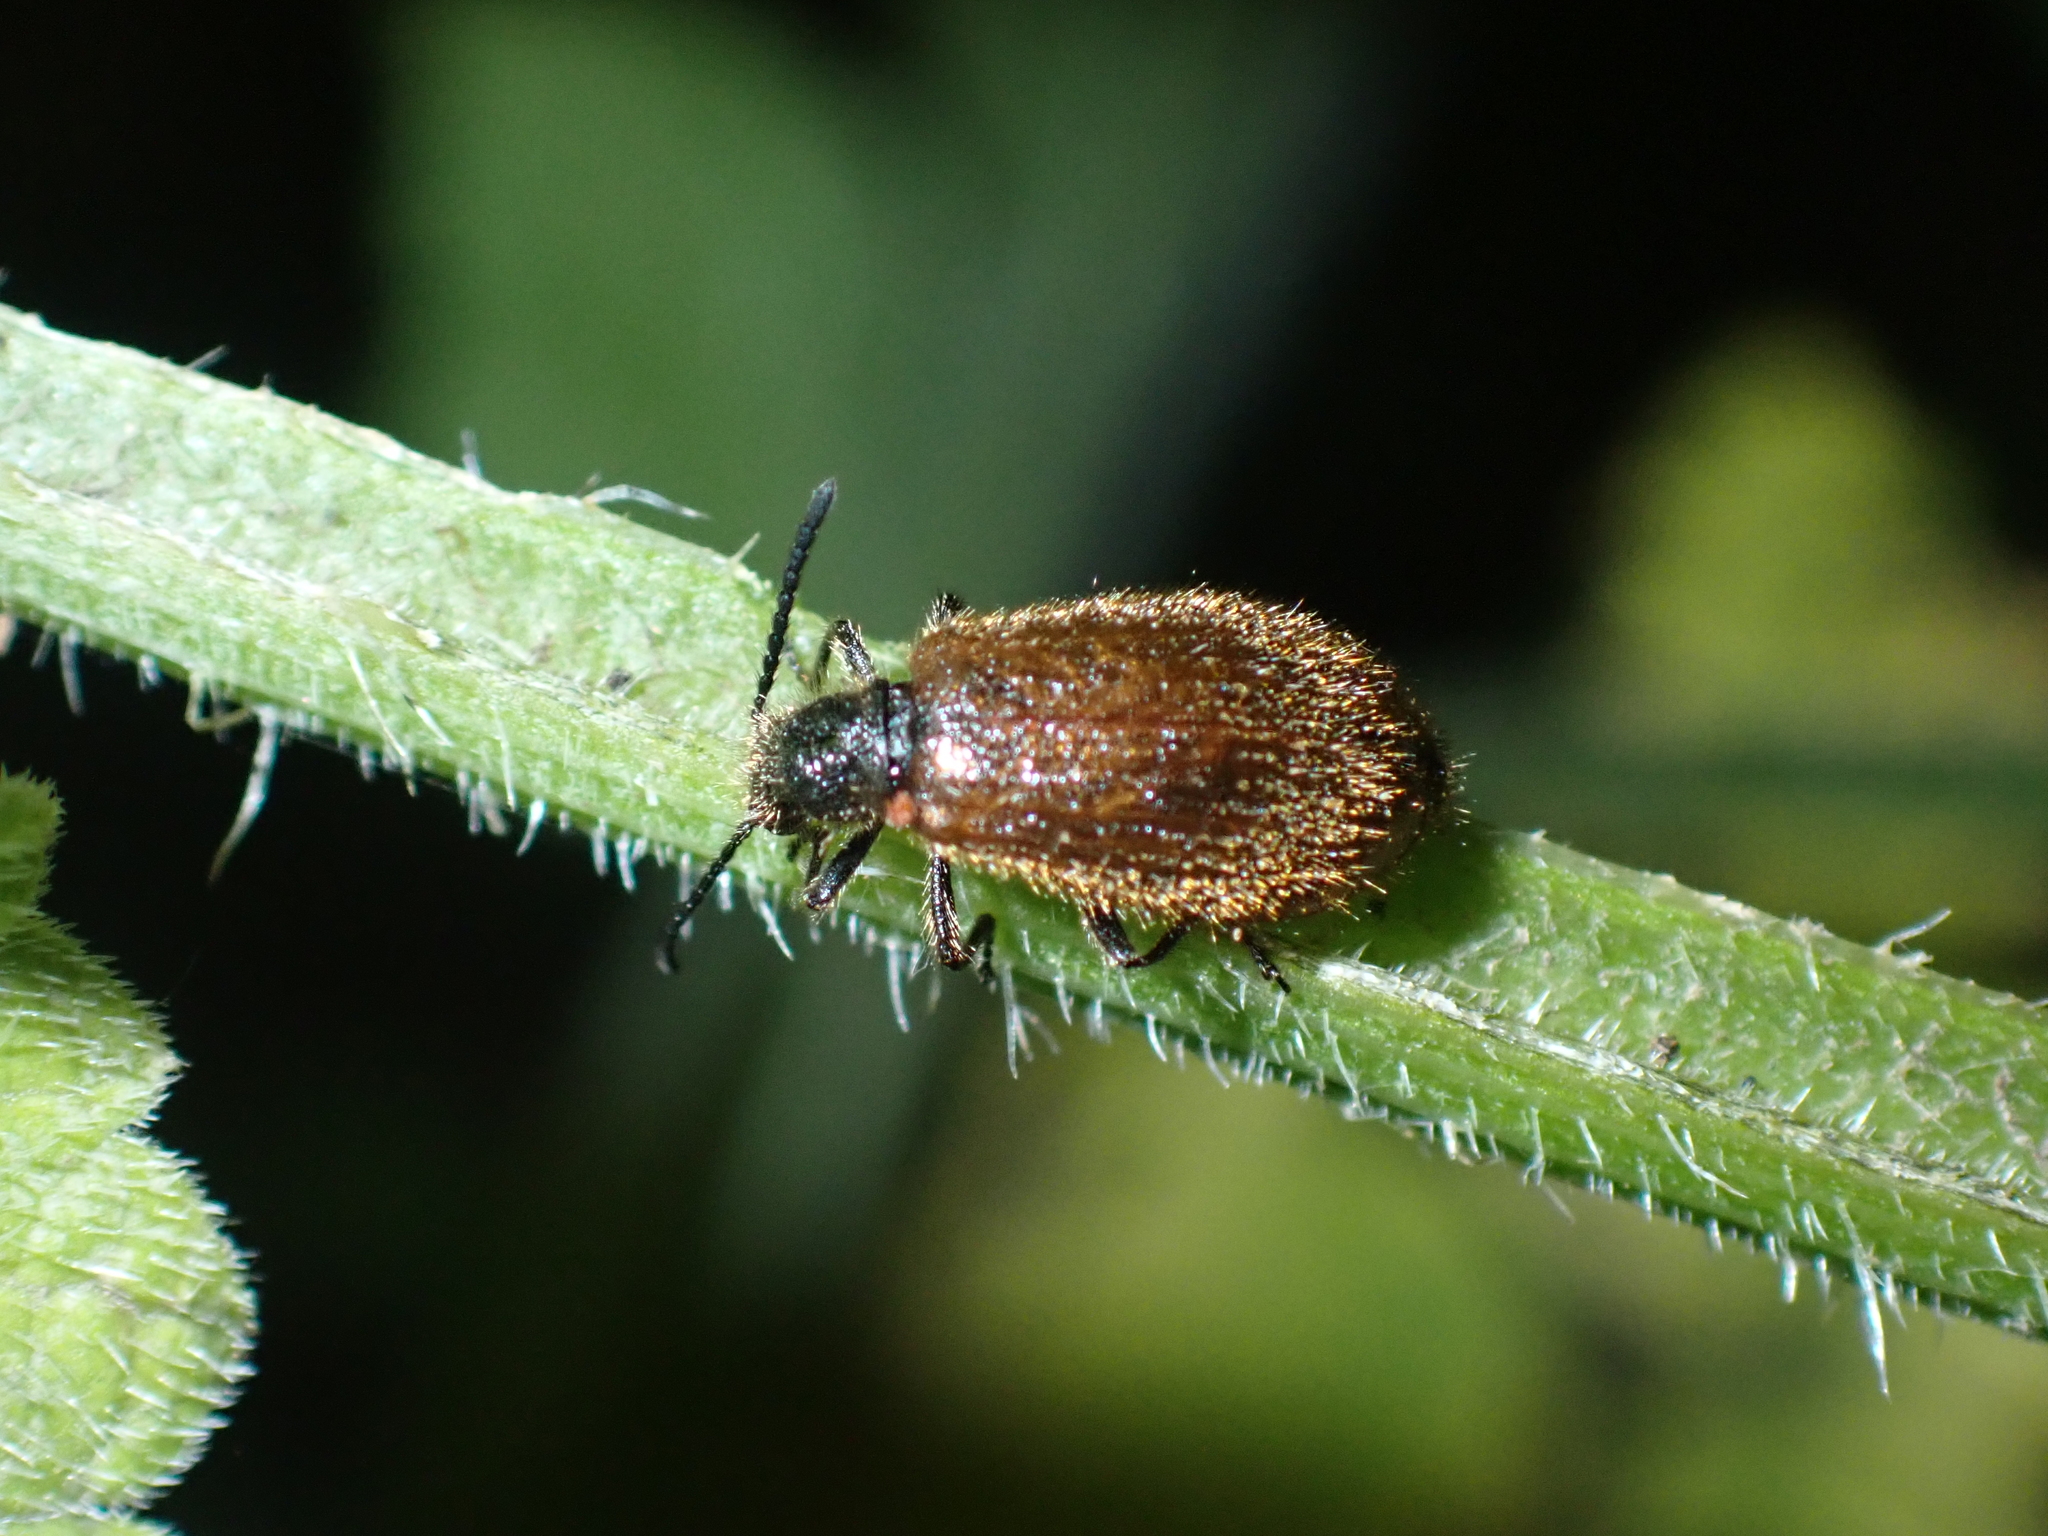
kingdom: Animalia
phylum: Arthropoda
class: Insecta
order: Coleoptera
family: Tenebrionidae
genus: Lagria
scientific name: Lagria hirta
